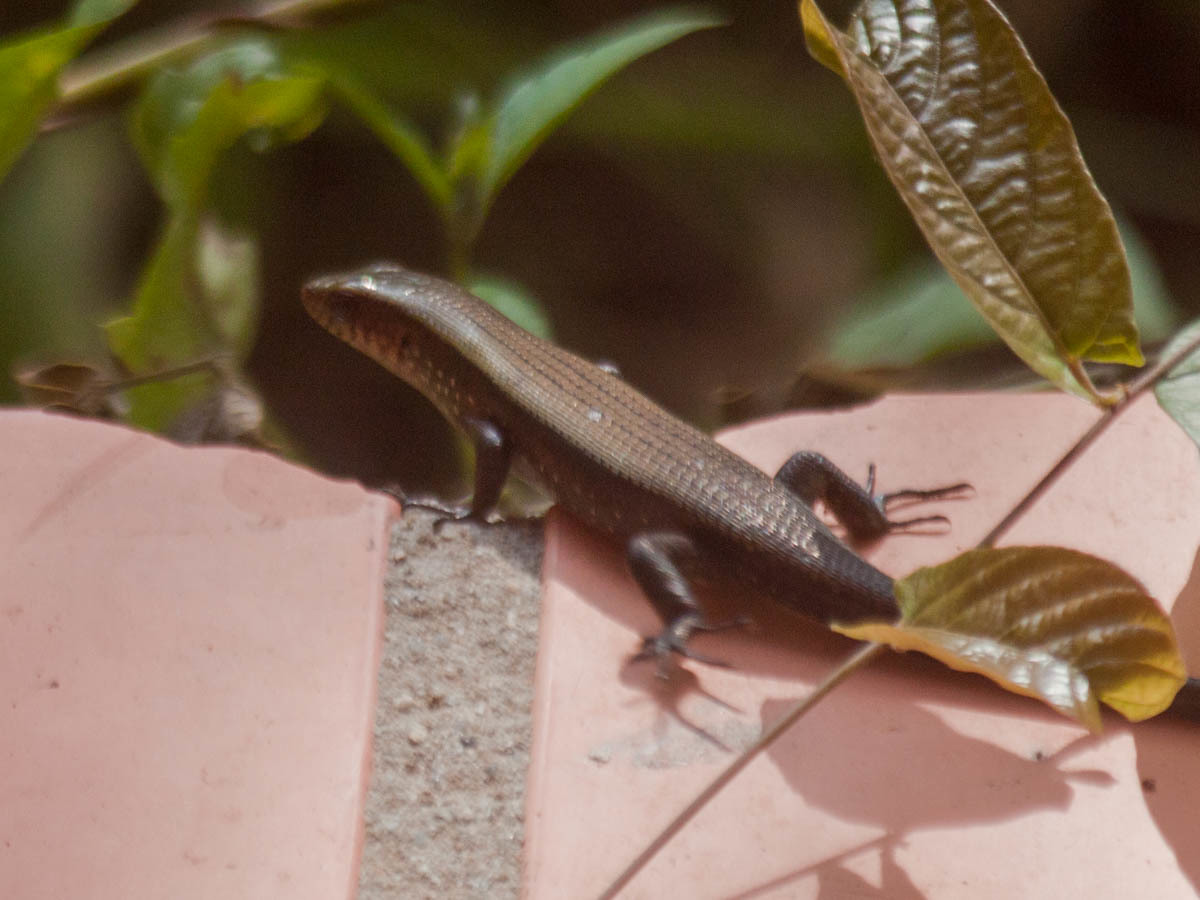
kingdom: Animalia
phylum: Chordata
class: Squamata
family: Scincidae
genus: Eutropis
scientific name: Eutropis multifasciata
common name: Common mabuya
